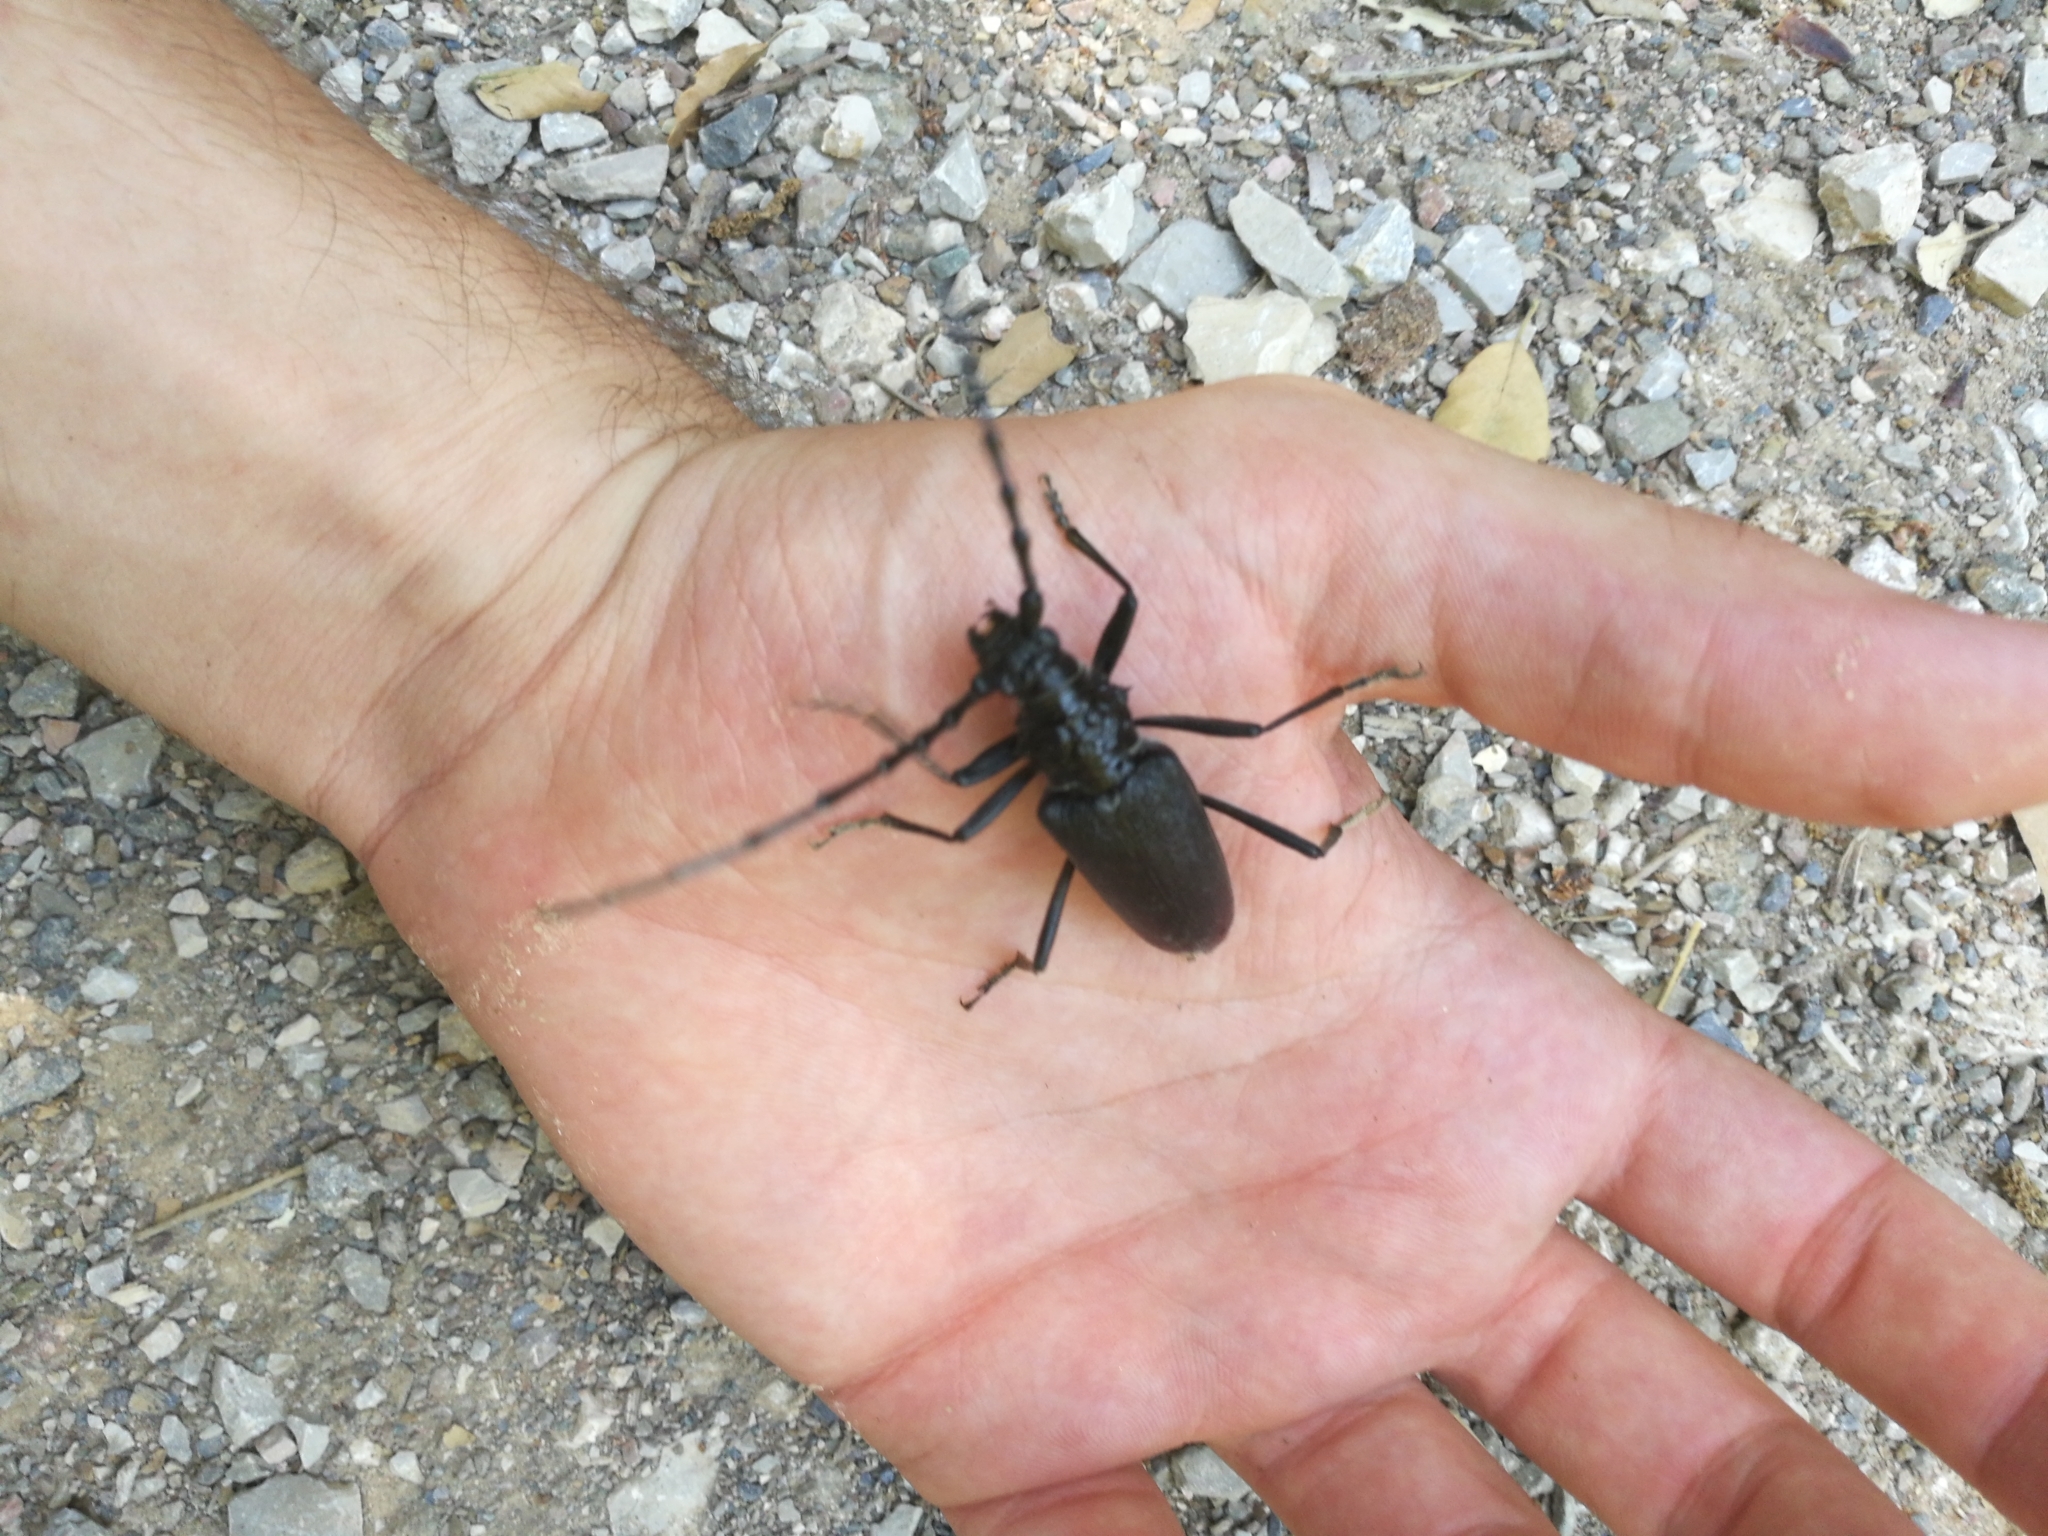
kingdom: Animalia
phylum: Arthropoda
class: Insecta
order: Coleoptera
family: Cerambycidae
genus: Cerambyx
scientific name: Cerambyx cerdo
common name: Cerambyx longicorn
